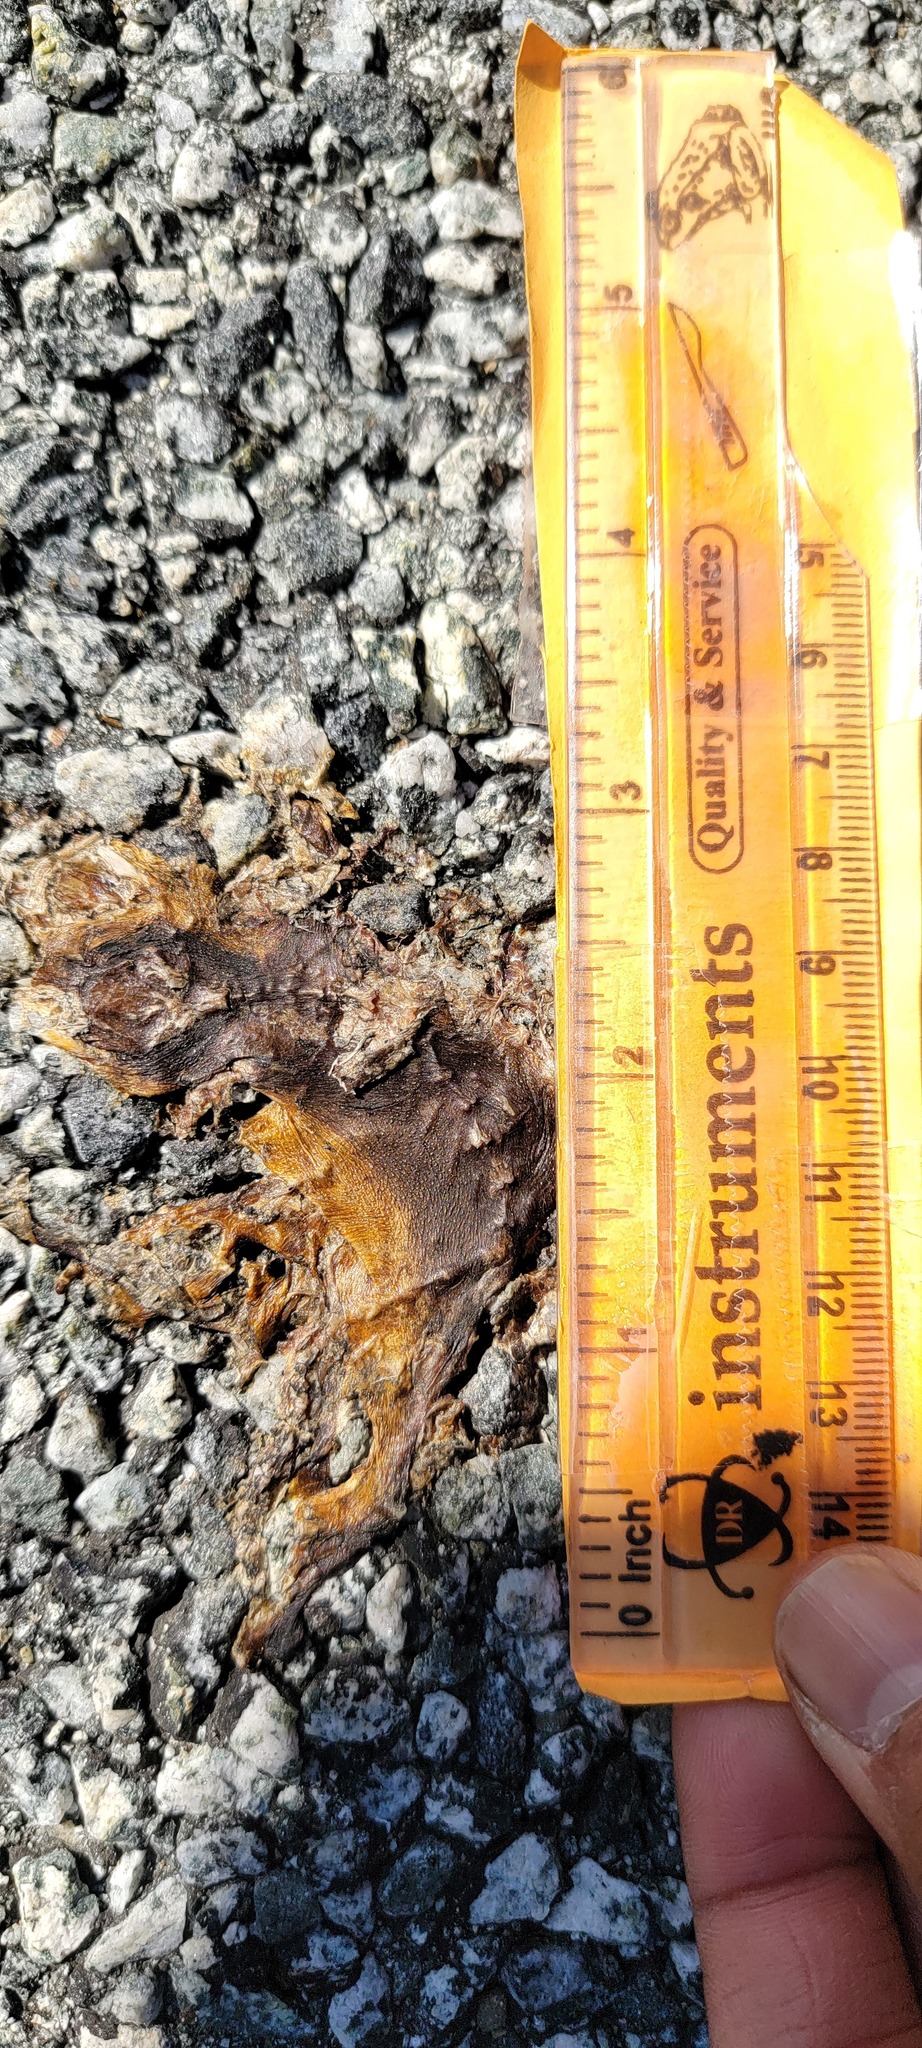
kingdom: Animalia
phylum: Chordata
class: Amphibia
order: Caudata
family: Salamandridae
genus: Taricha
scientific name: Taricha
